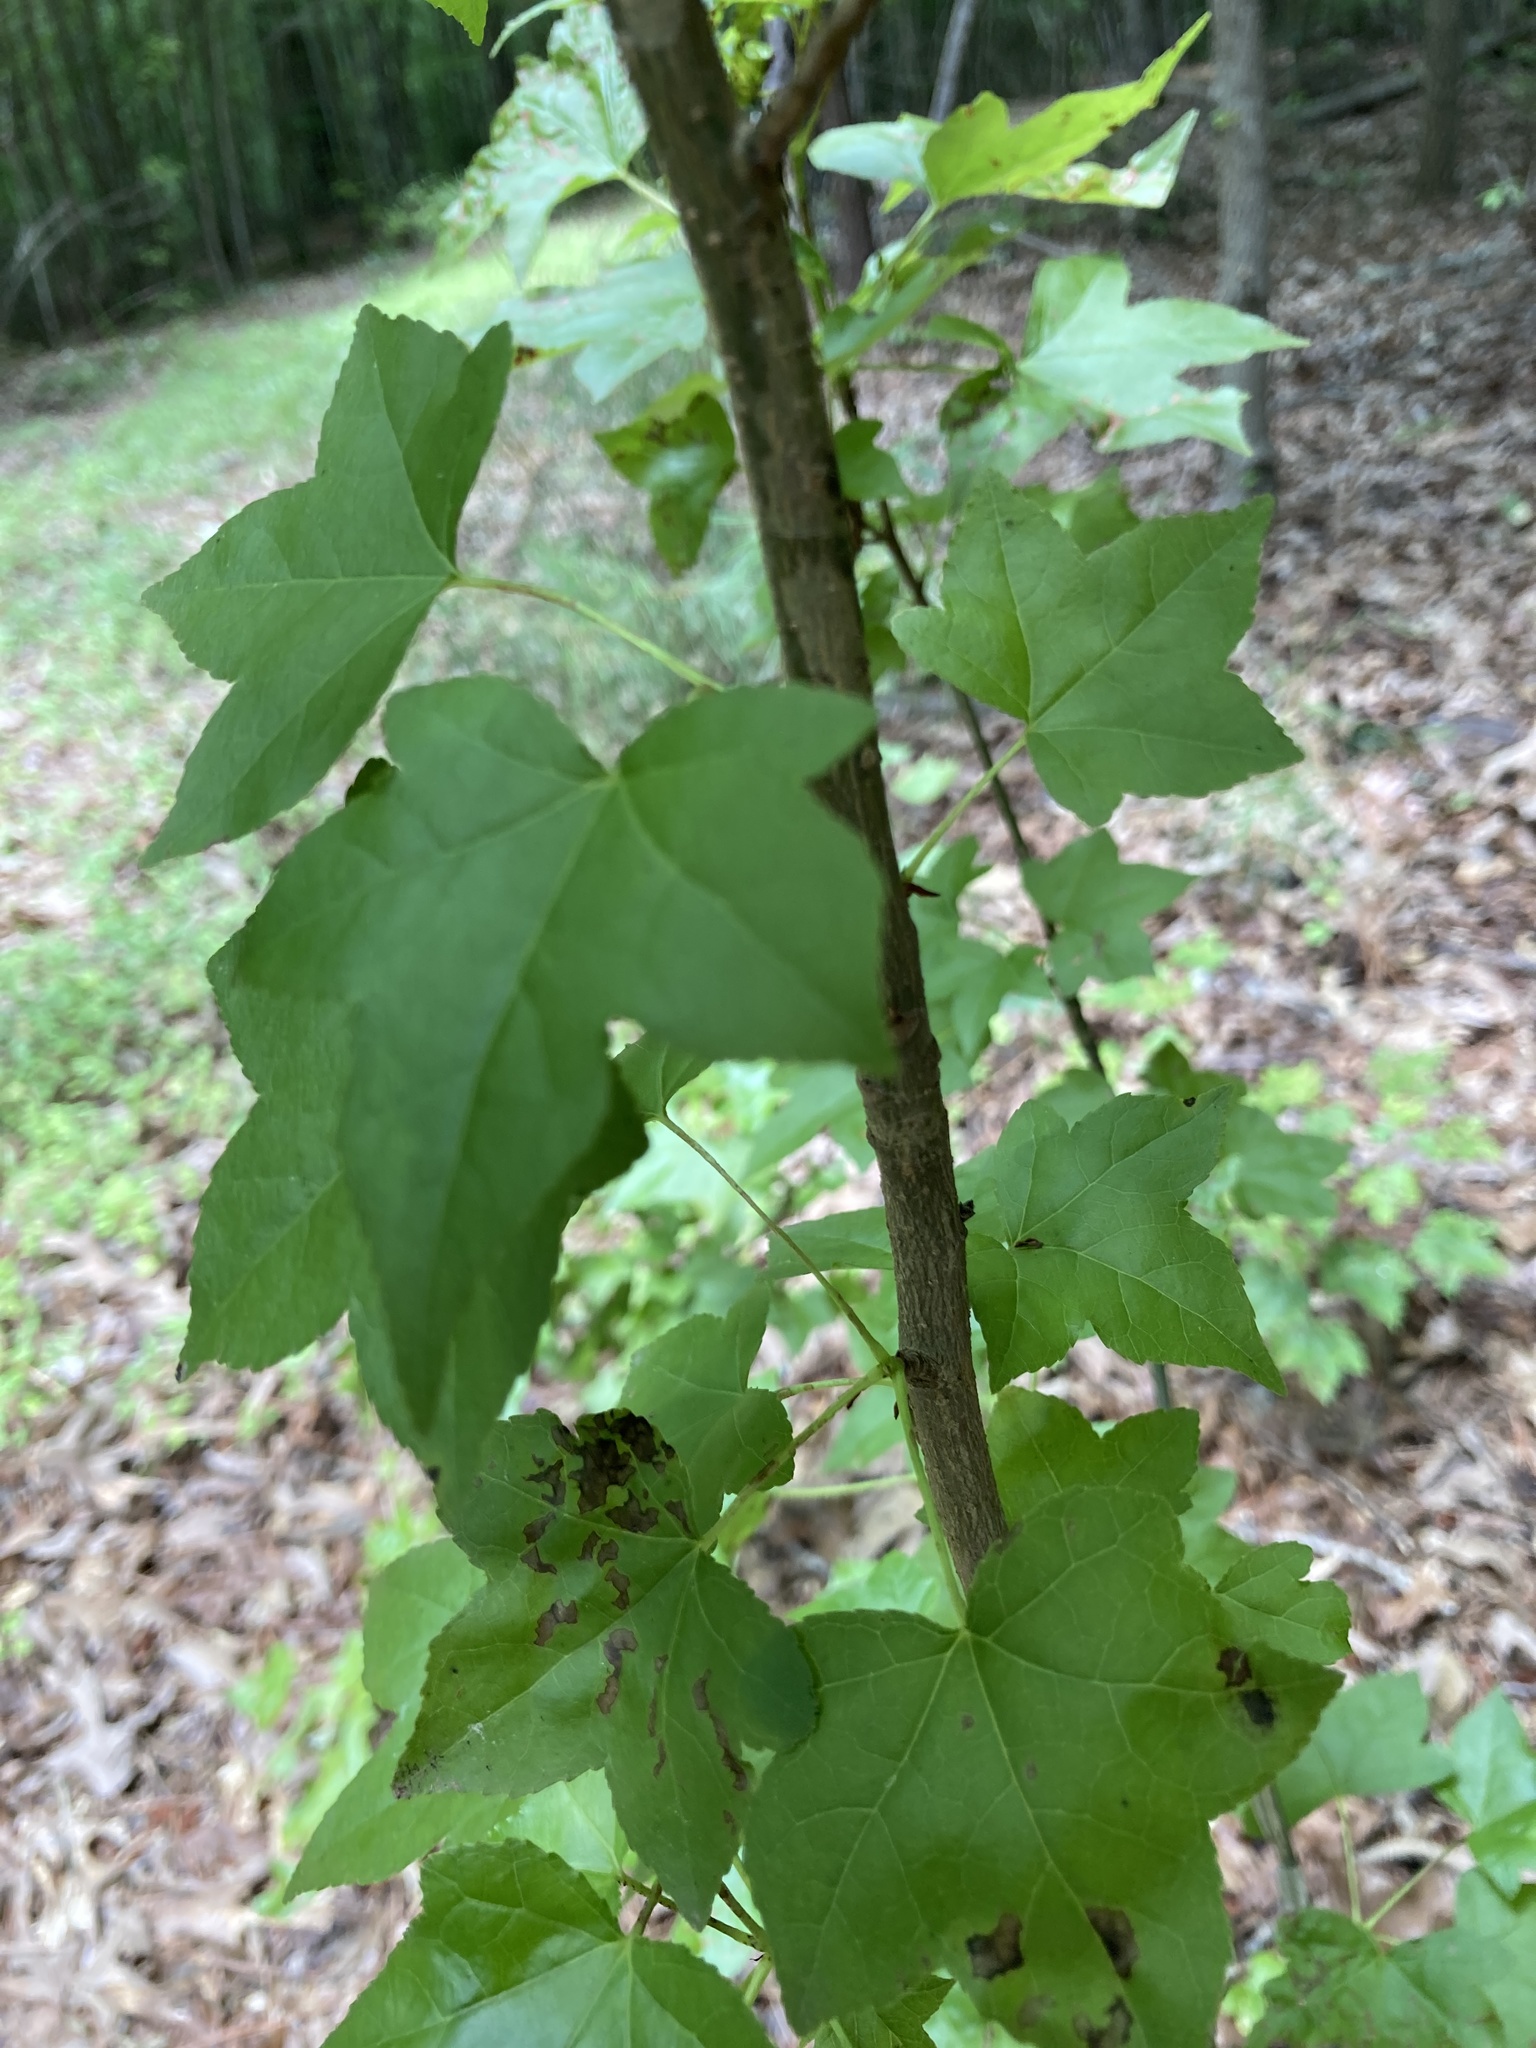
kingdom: Plantae
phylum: Tracheophyta
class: Magnoliopsida
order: Saxifragales
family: Altingiaceae
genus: Liquidambar
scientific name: Liquidambar styraciflua
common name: Sweet gum
